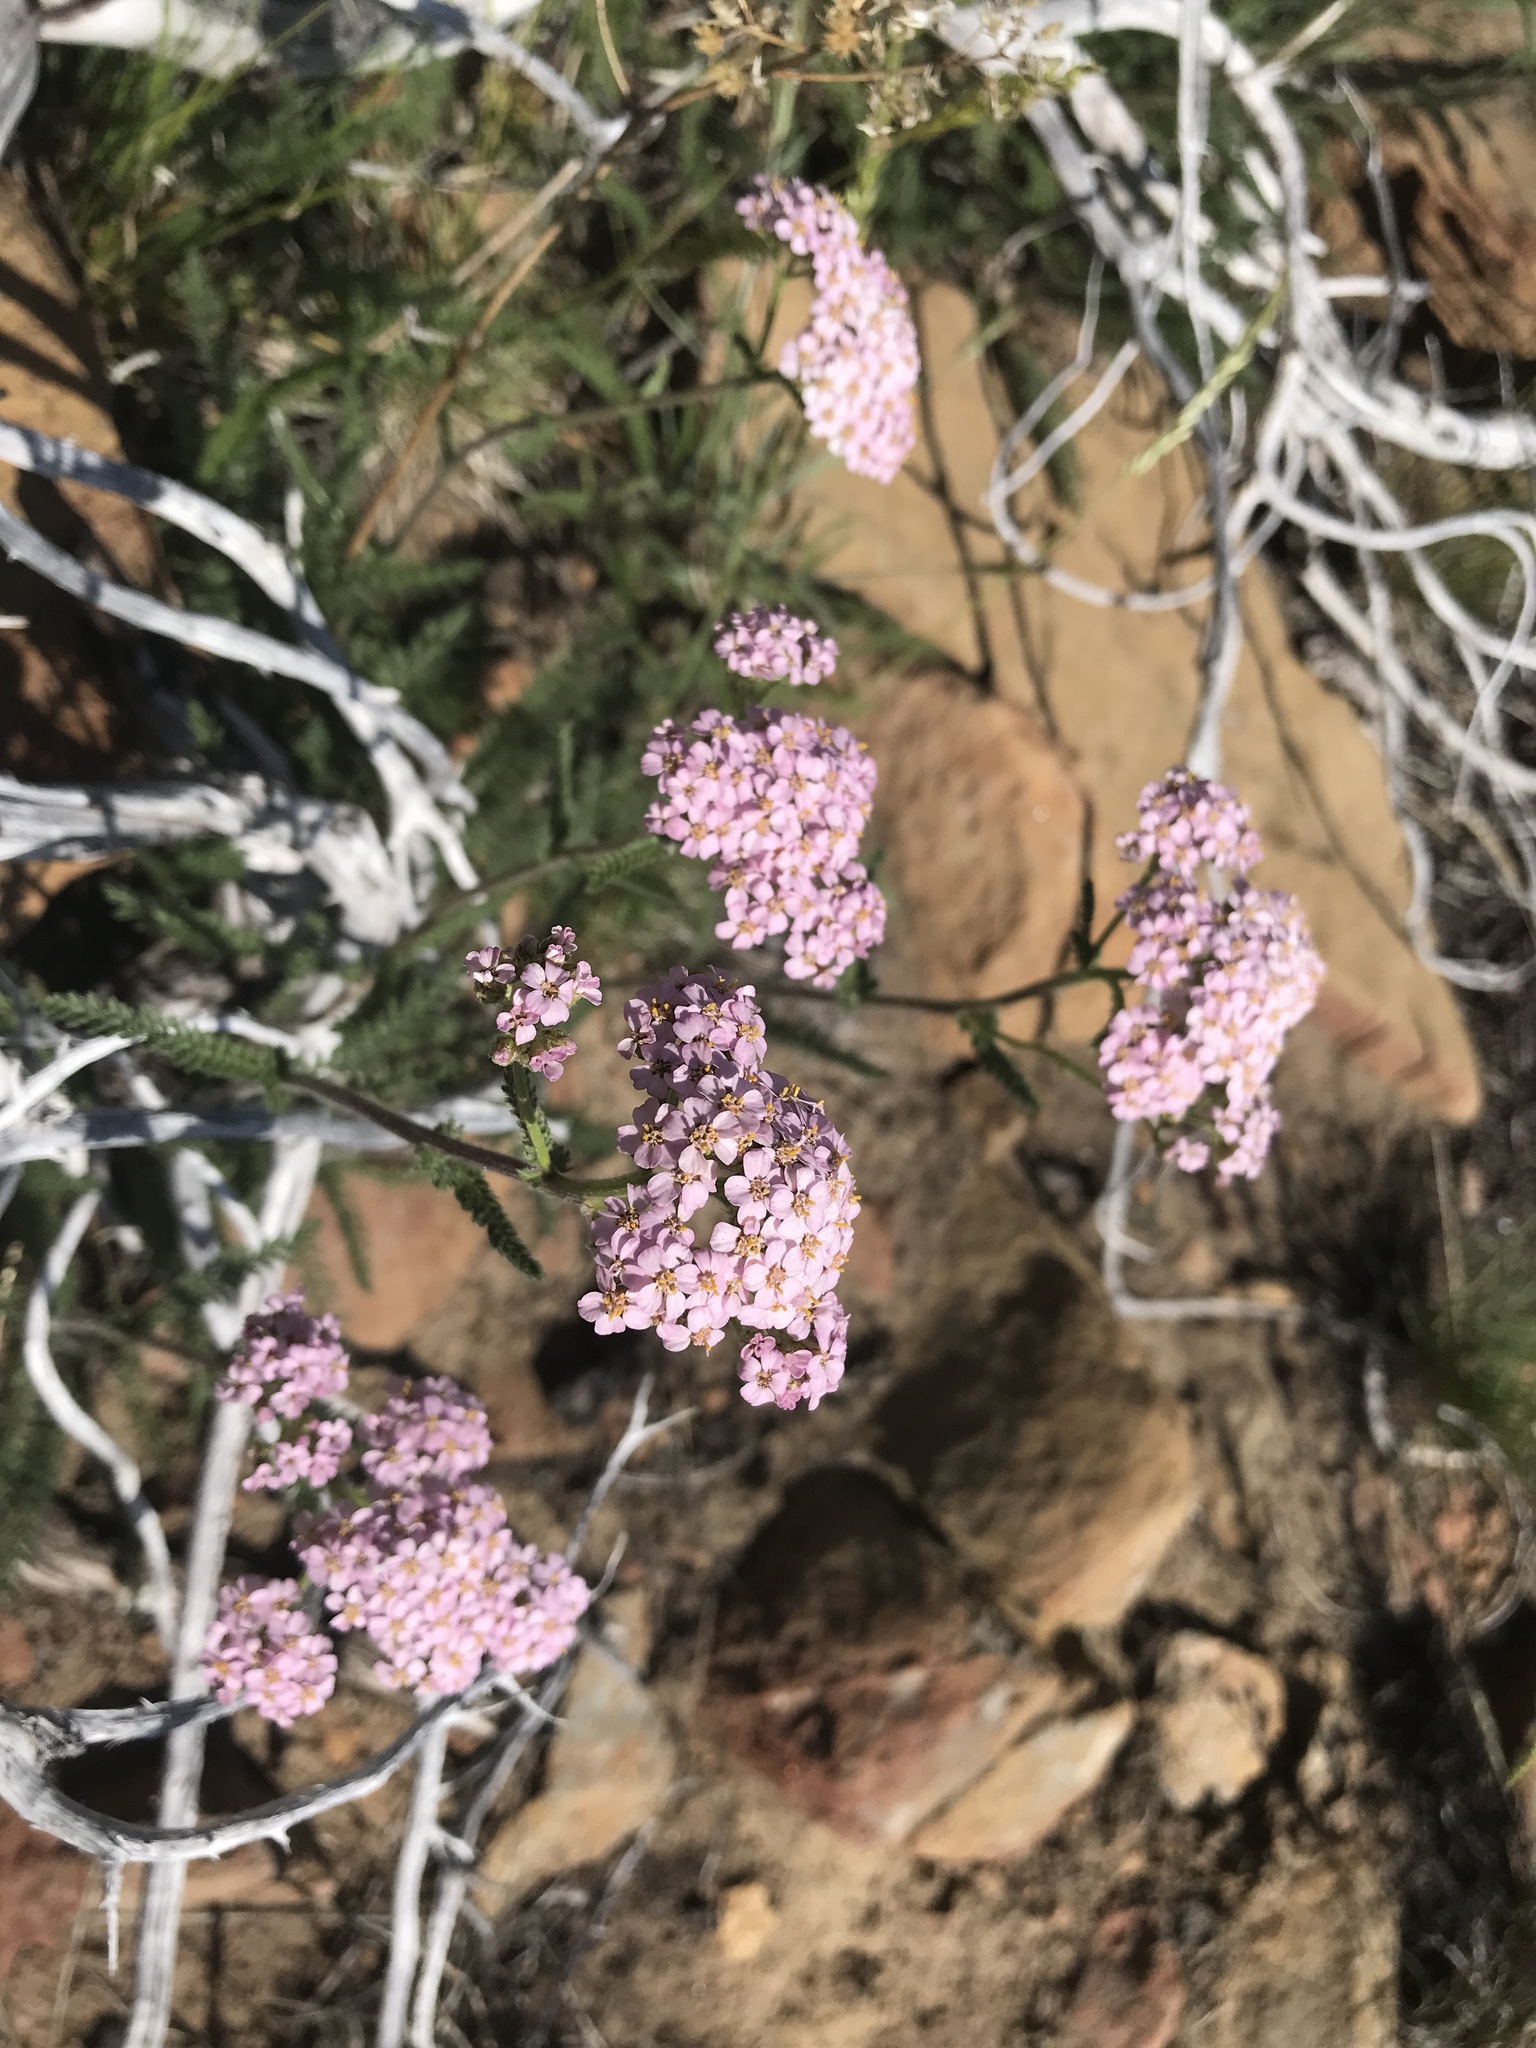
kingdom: Plantae
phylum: Tracheophyta
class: Magnoliopsida
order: Asterales
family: Asteraceae
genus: Achillea
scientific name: Achillea millefolium
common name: Yarrow
